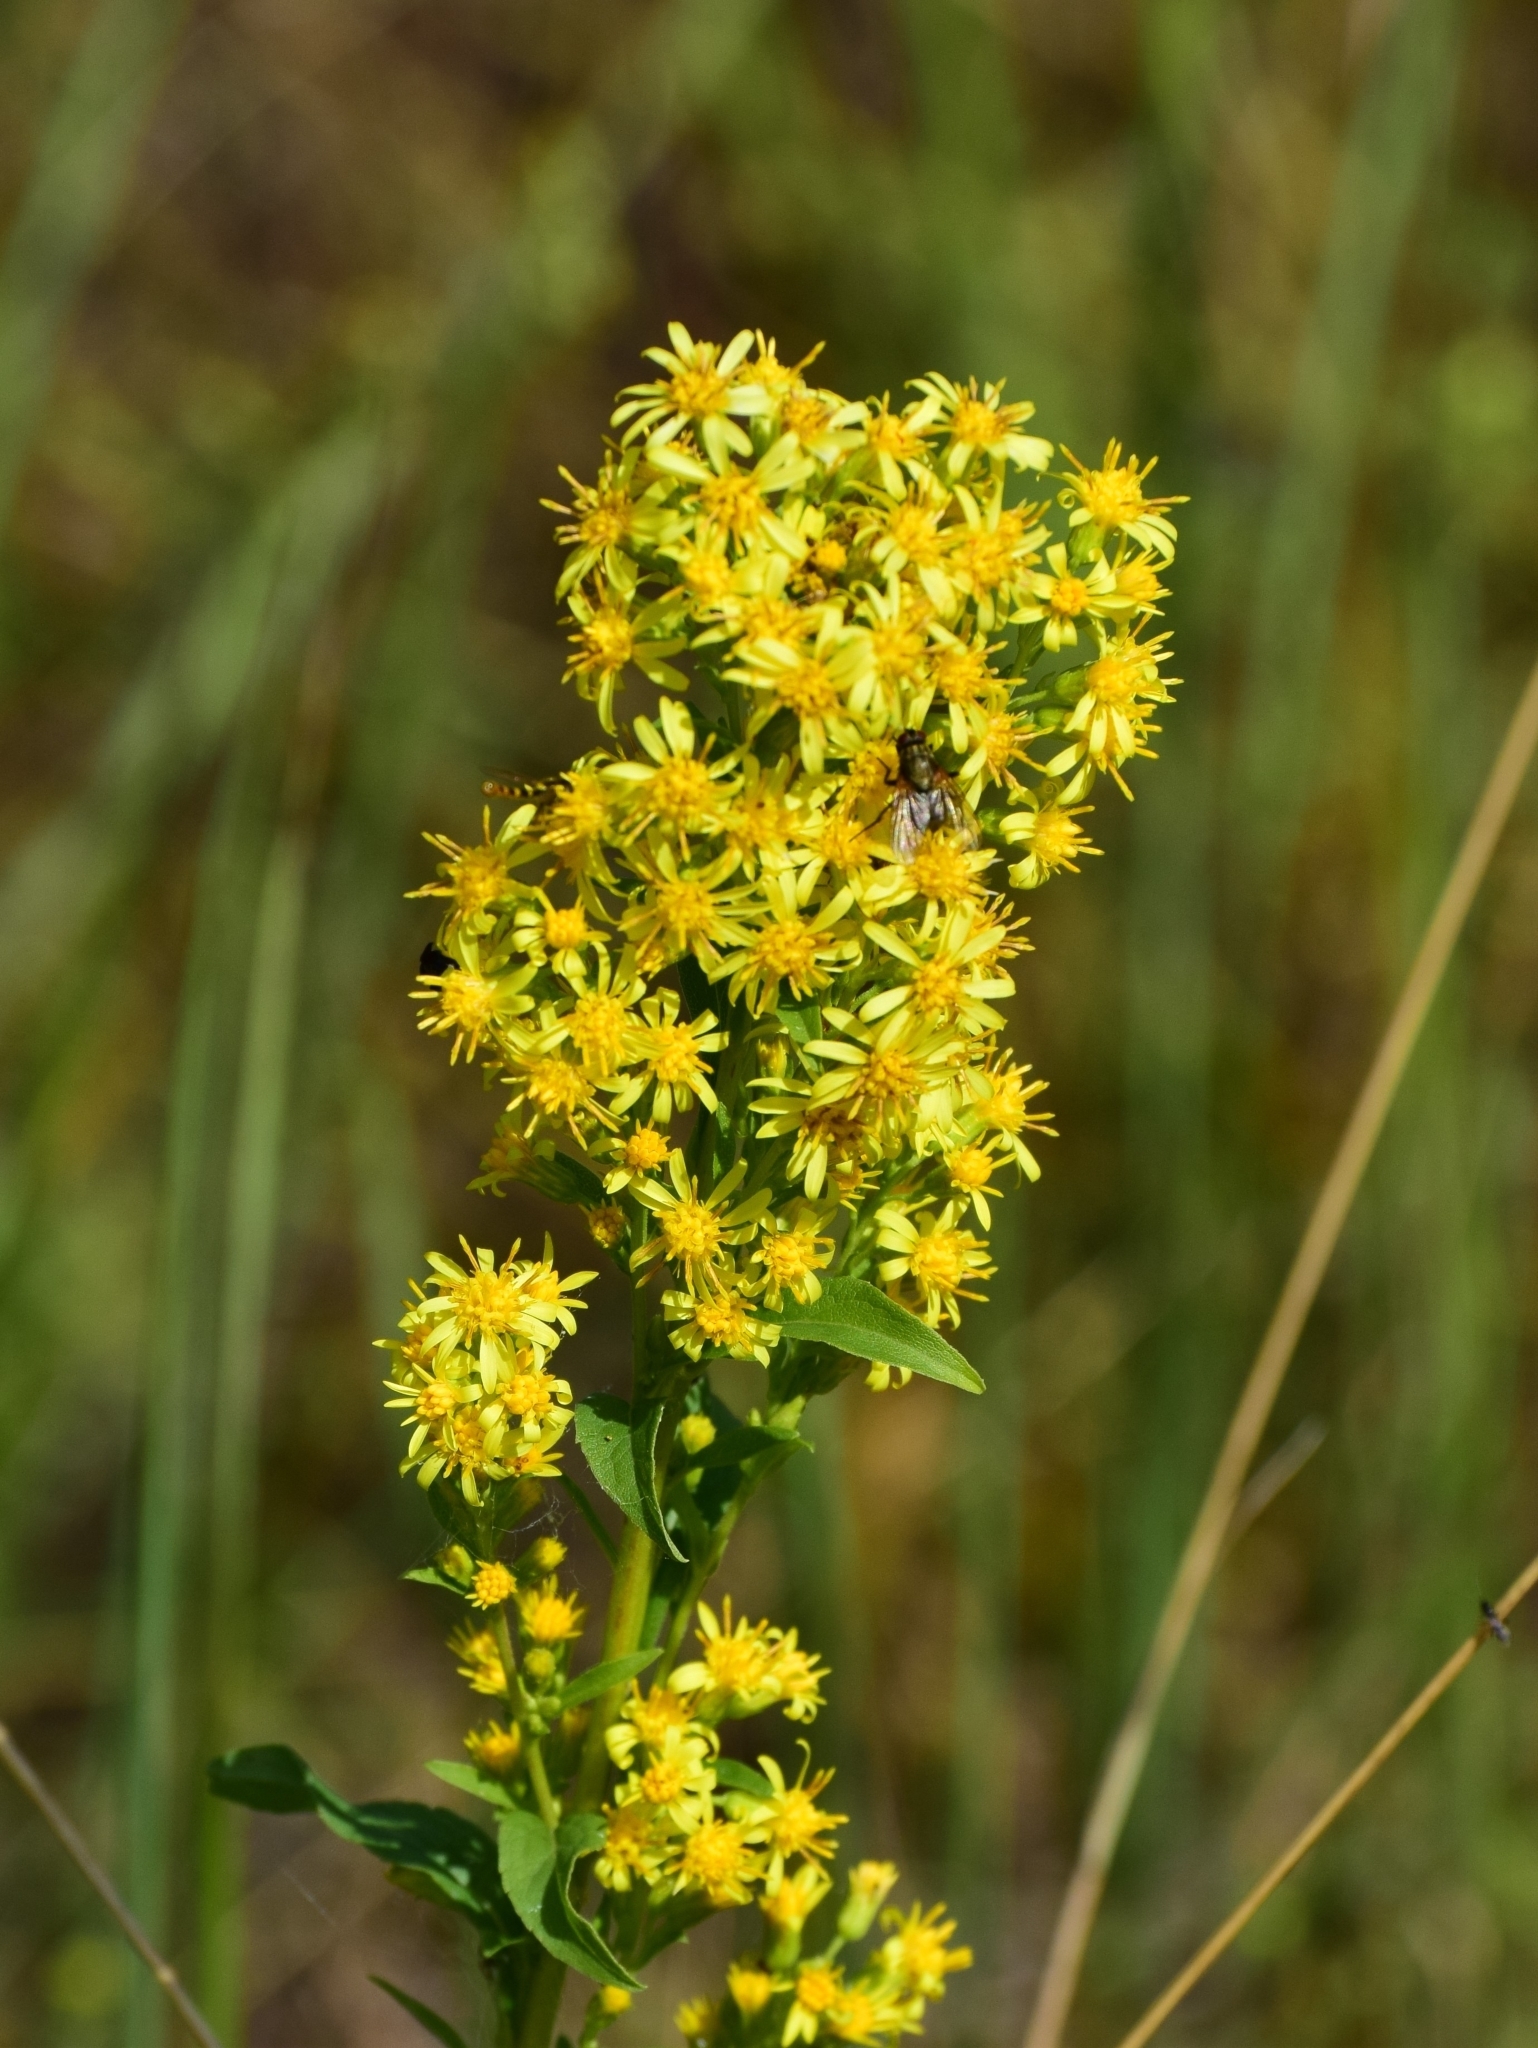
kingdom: Plantae
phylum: Tracheophyta
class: Magnoliopsida
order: Asterales
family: Asteraceae
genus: Solidago
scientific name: Solidago virgaurea
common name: Goldenrod
